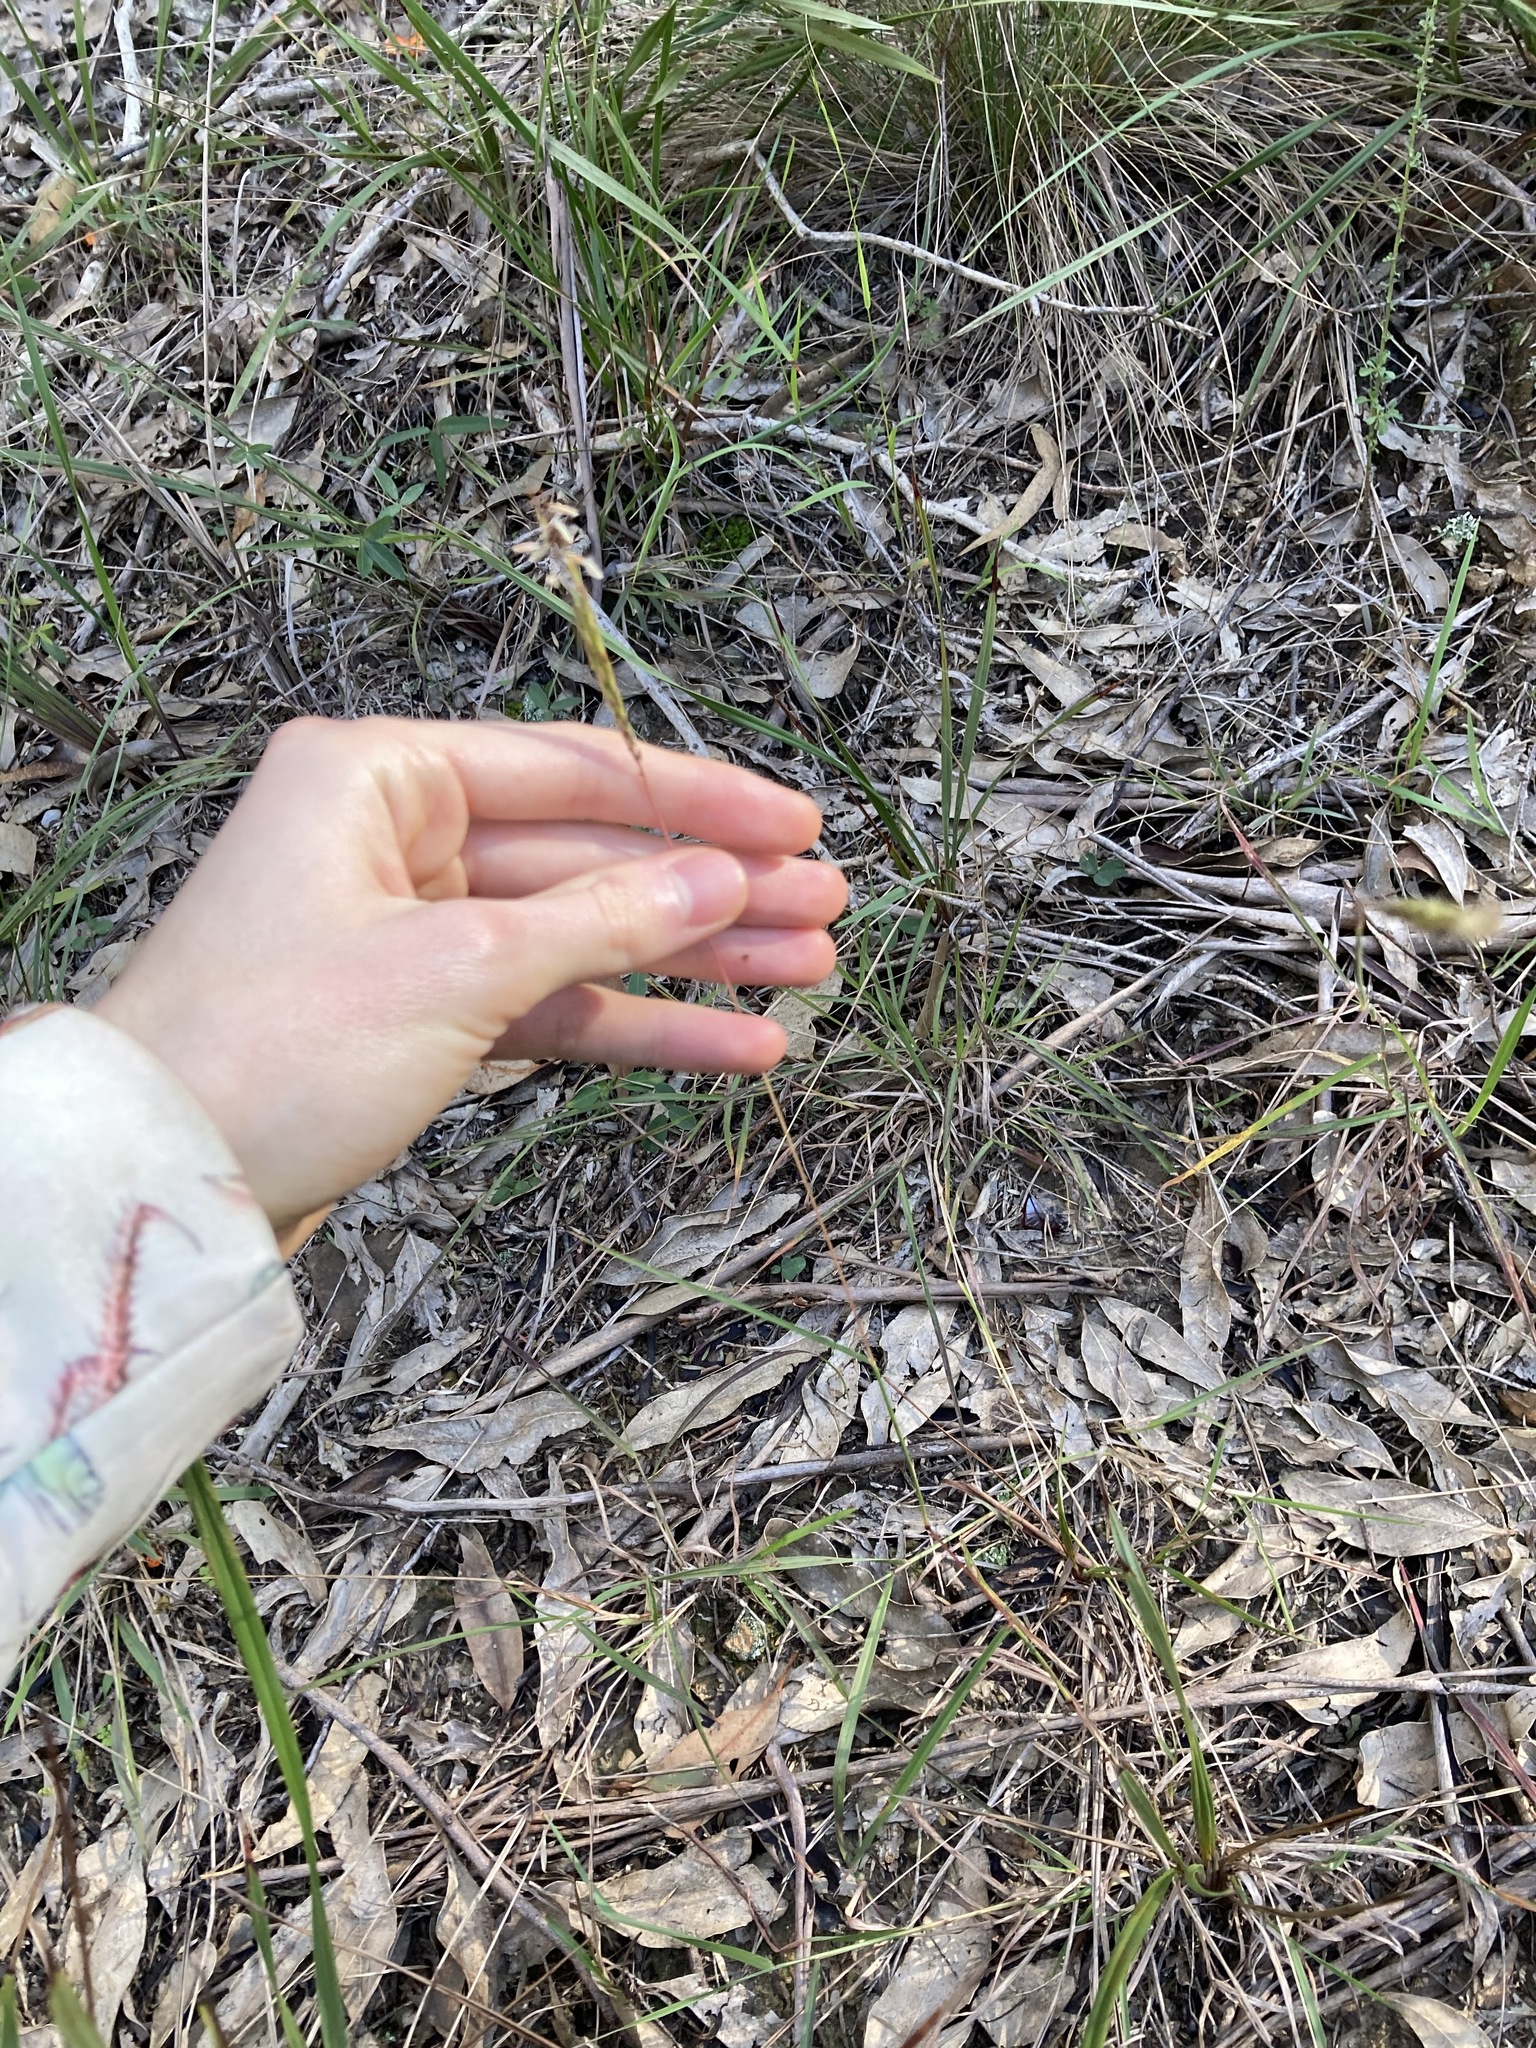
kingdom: Plantae
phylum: Tracheophyta
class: Liliopsida
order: Poales
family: Poaceae
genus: Bothriochloa
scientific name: Bothriochloa macra
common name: Pitted beard grass
